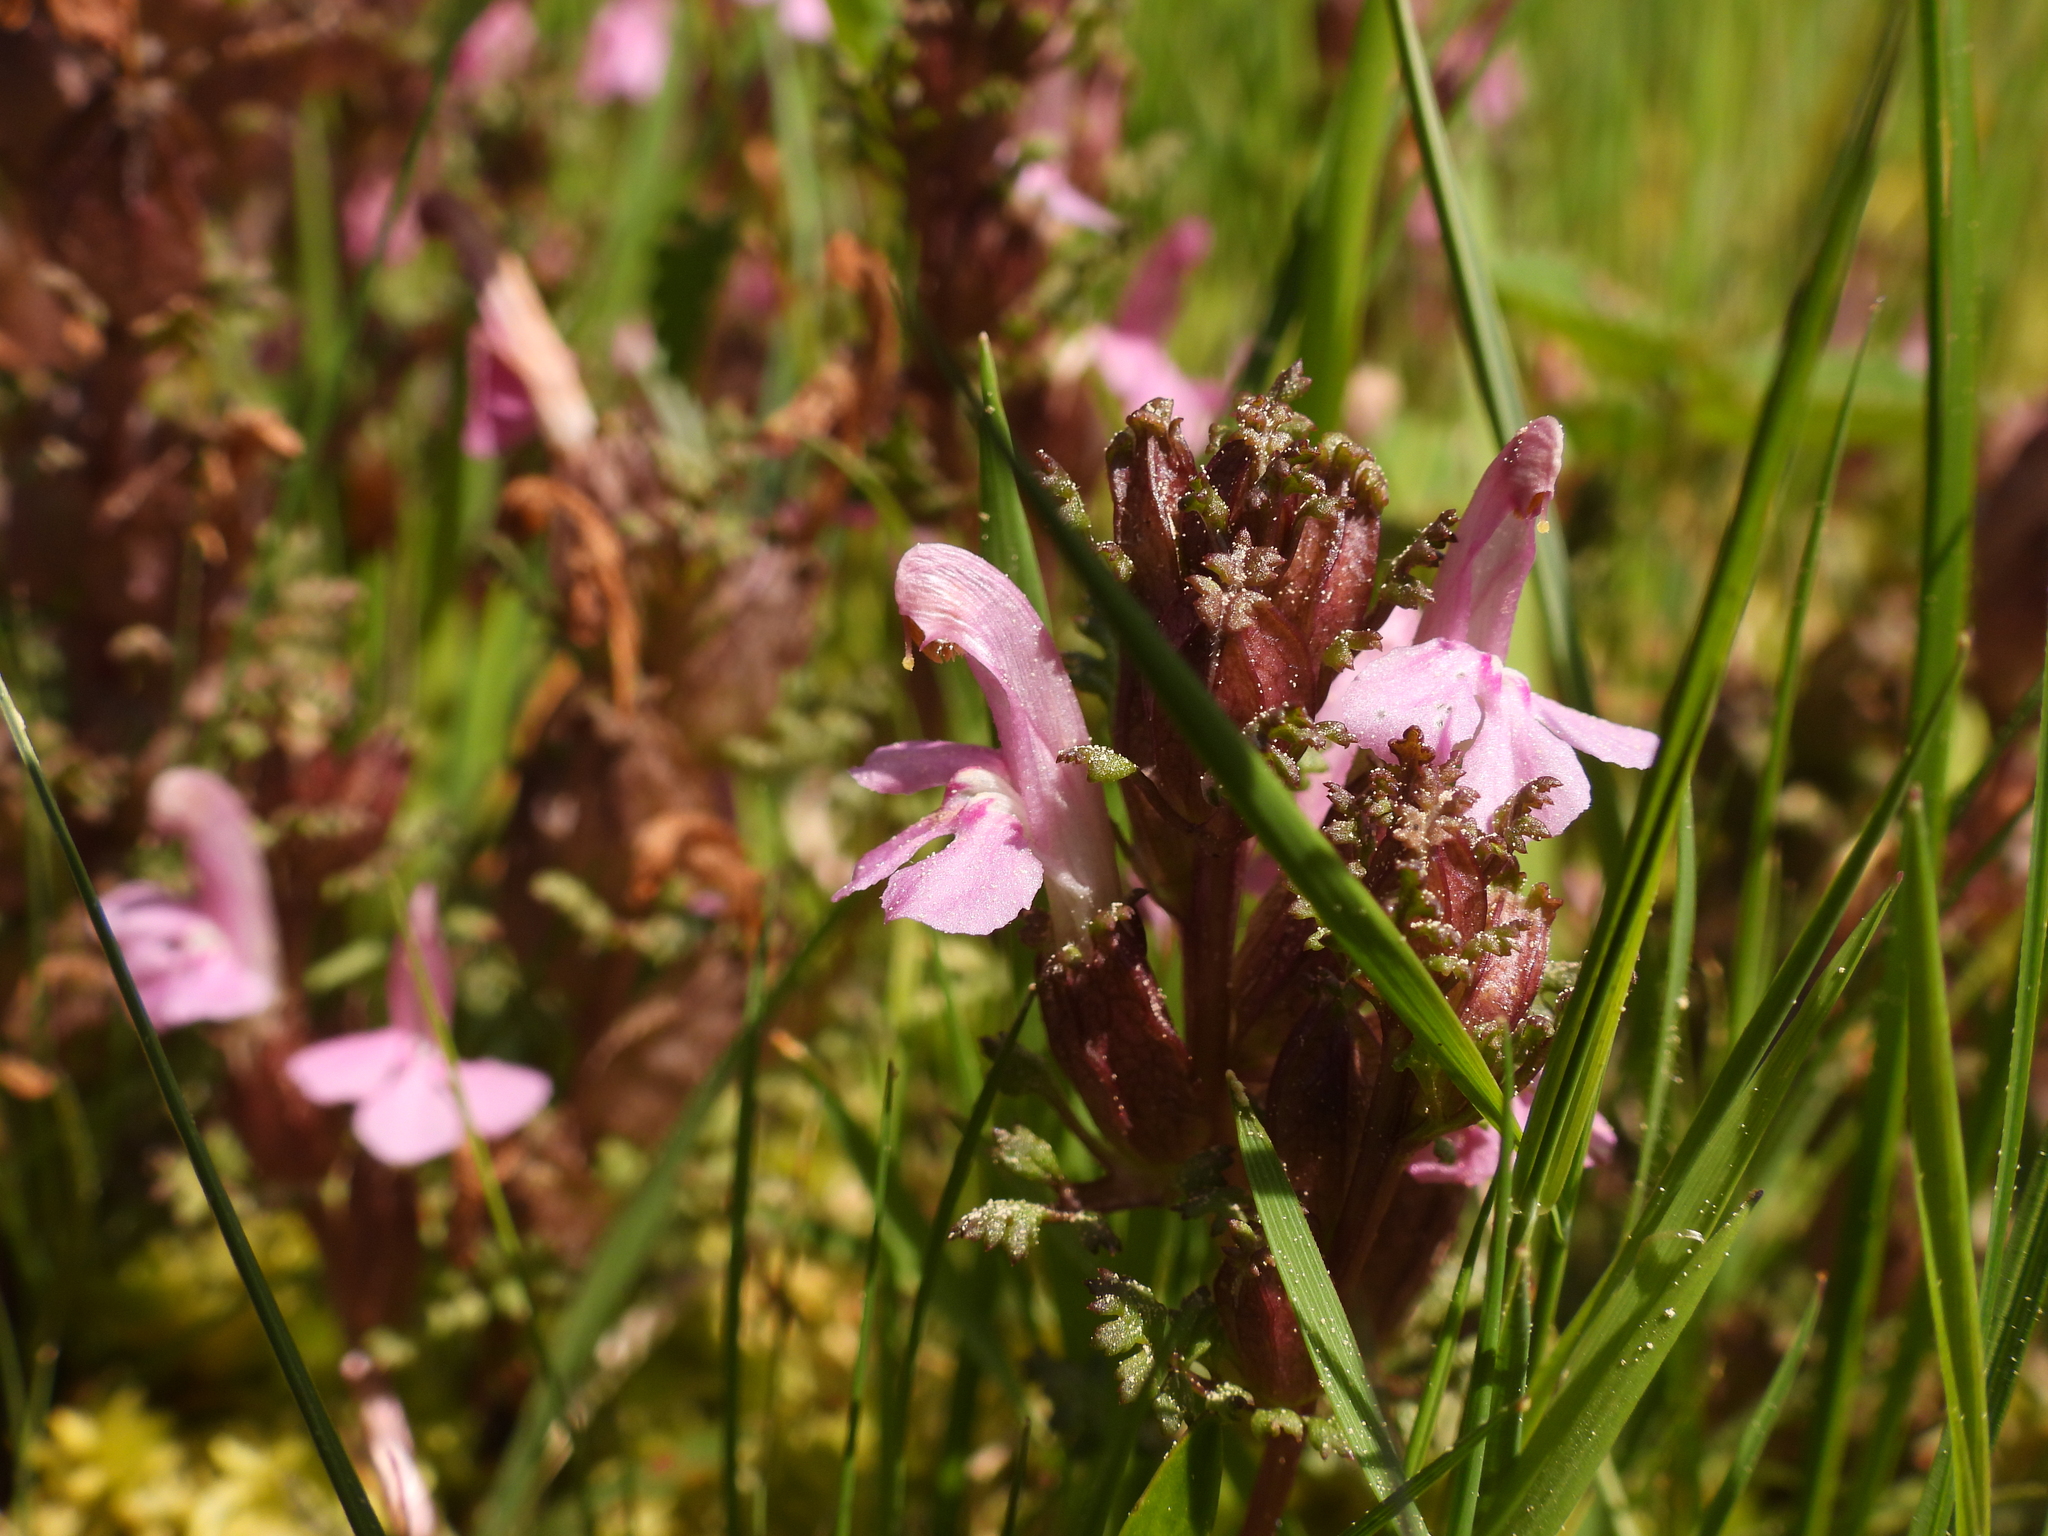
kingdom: Plantae
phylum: Tracheophyta
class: Magnoliopsida
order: Lamiales
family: Orobanchaceae
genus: Pedicularis
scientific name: Pedicularis sylvatica
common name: Lousewort
